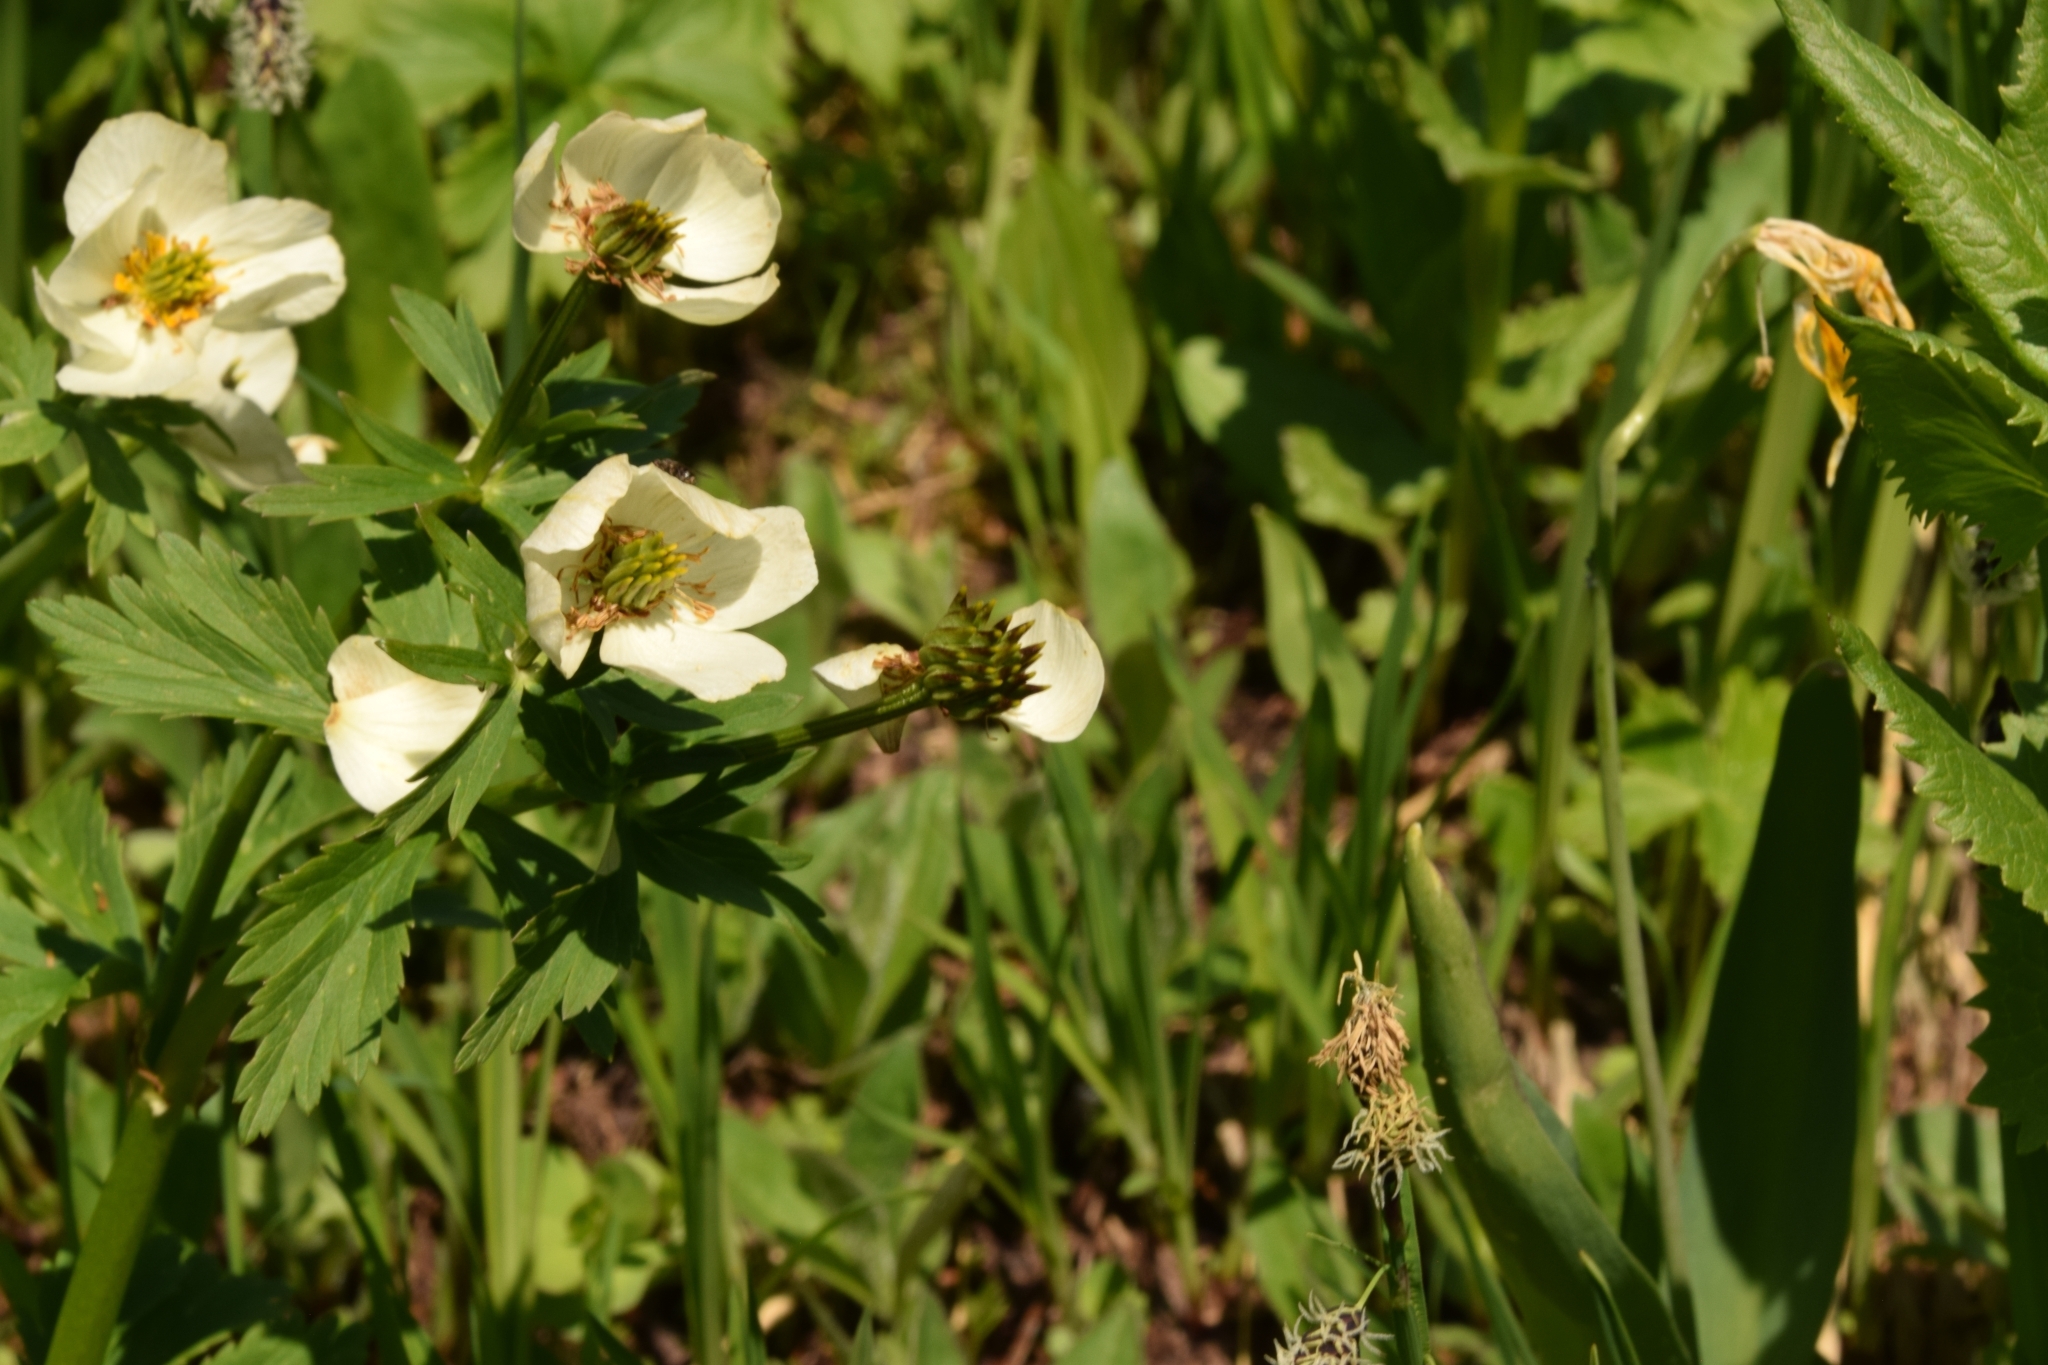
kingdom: Plantae
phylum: Tracheophyta
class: Magnoliopsida
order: Ranunculales
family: Ranunculaceae
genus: Trollius
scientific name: Trollius laxus
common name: American globeflower
